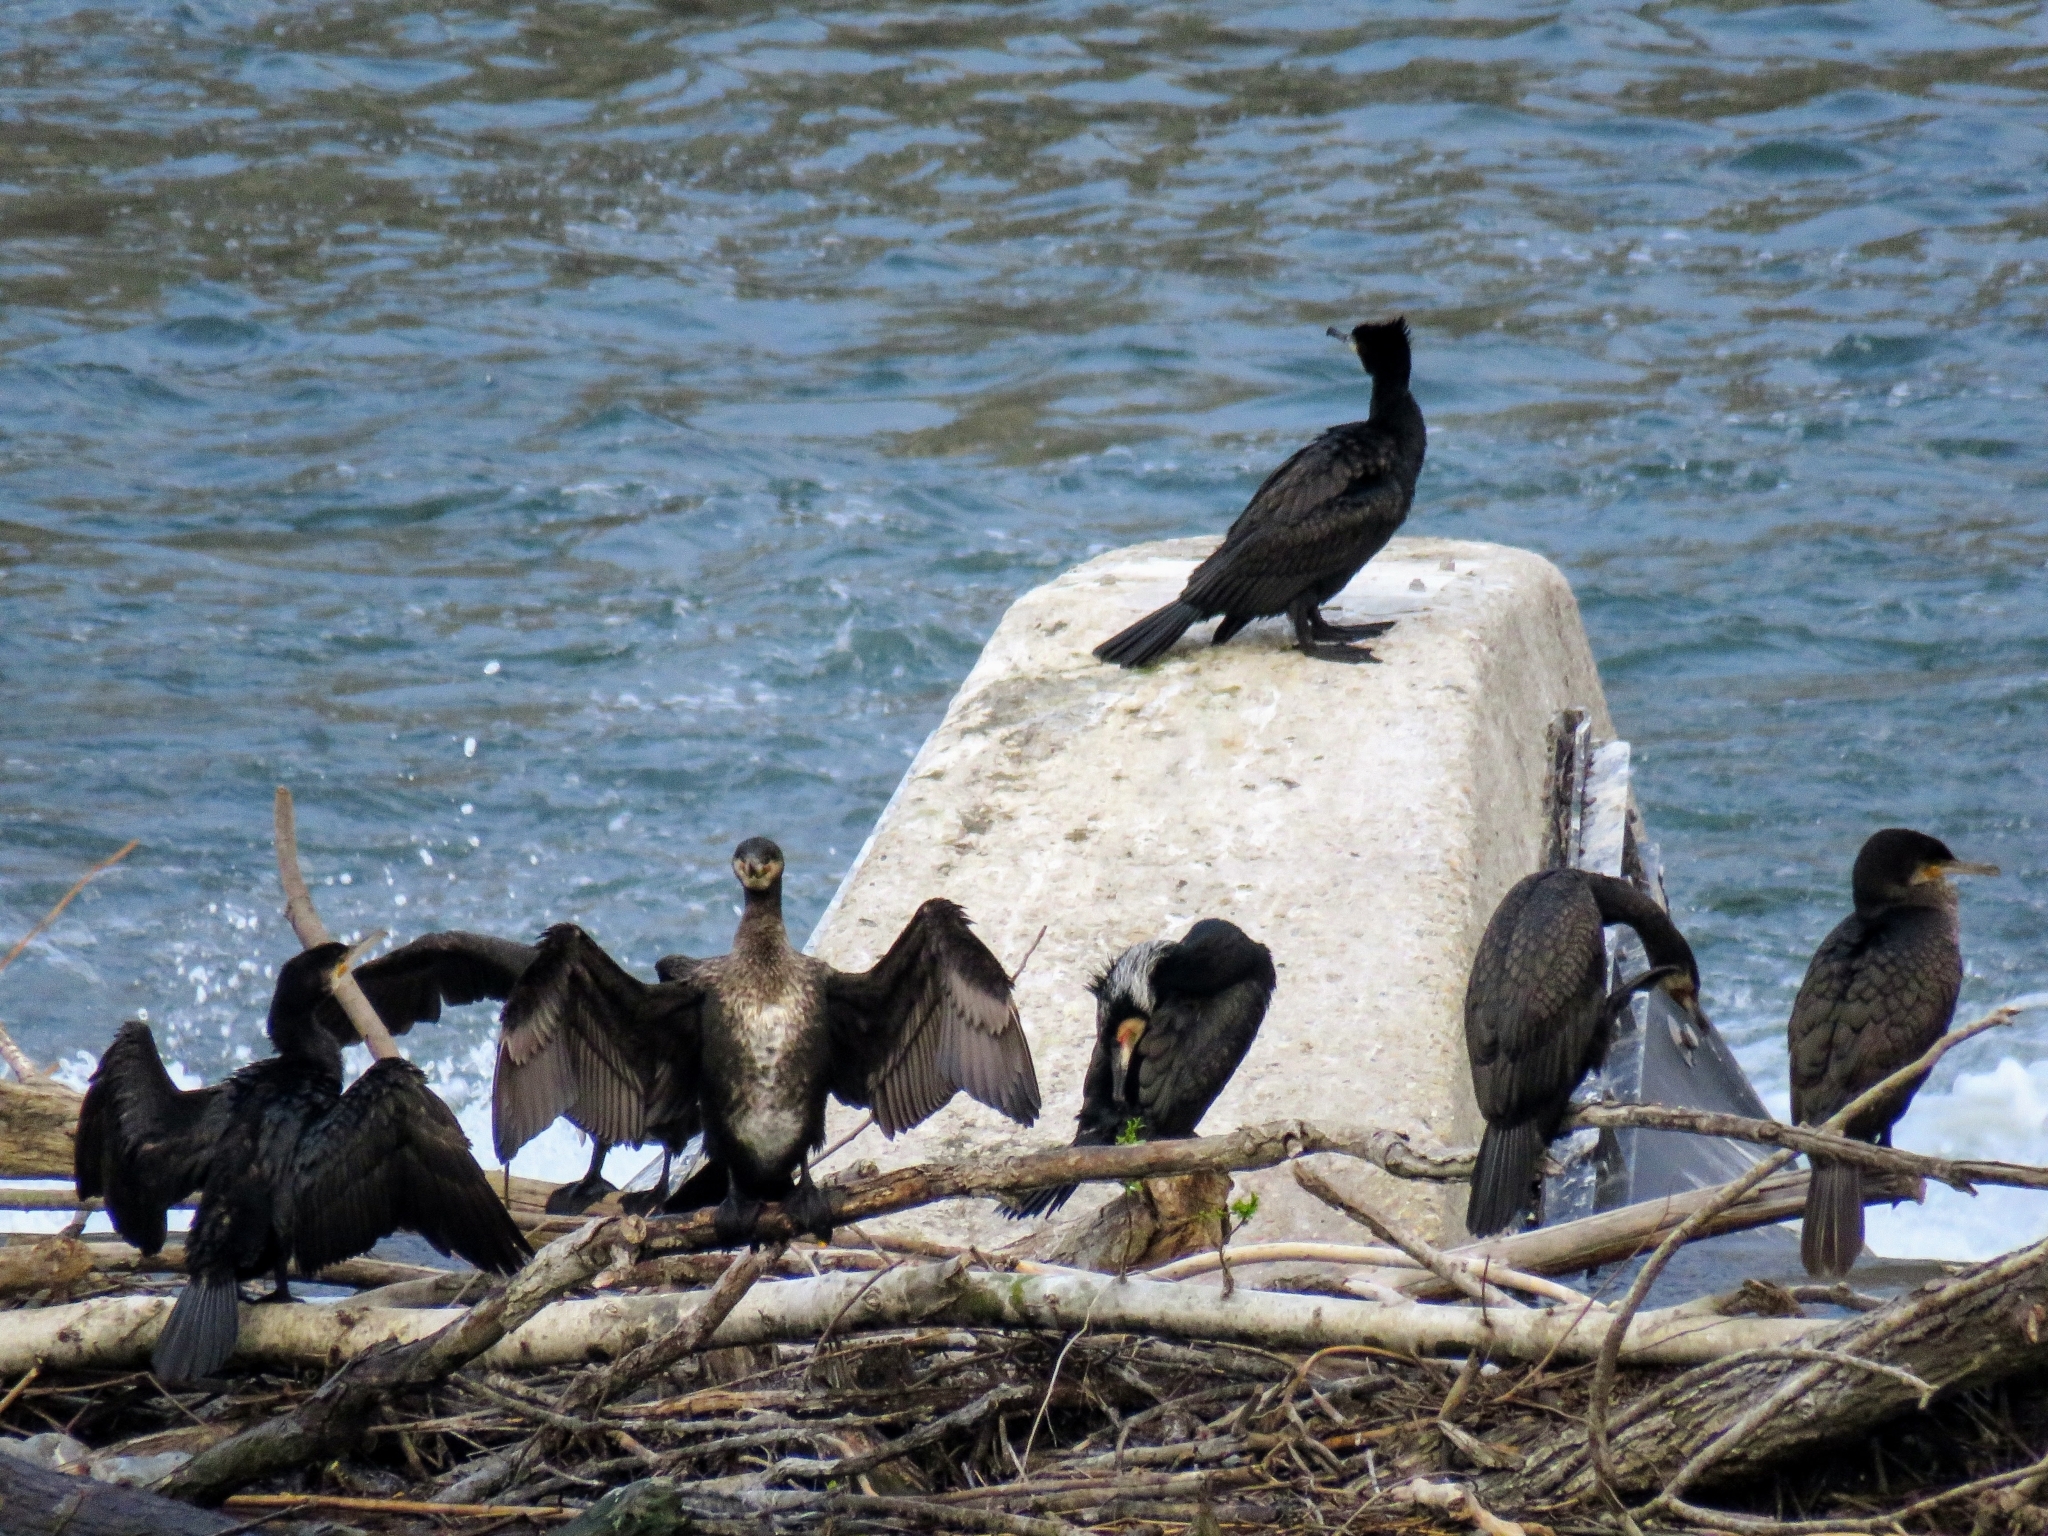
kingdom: Animalia
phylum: Chordata
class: Aves
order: Suliformes
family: Phalacrocoracidae
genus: Phalacrocorax
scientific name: Phalacrocorax carbo
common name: Great cormorant
